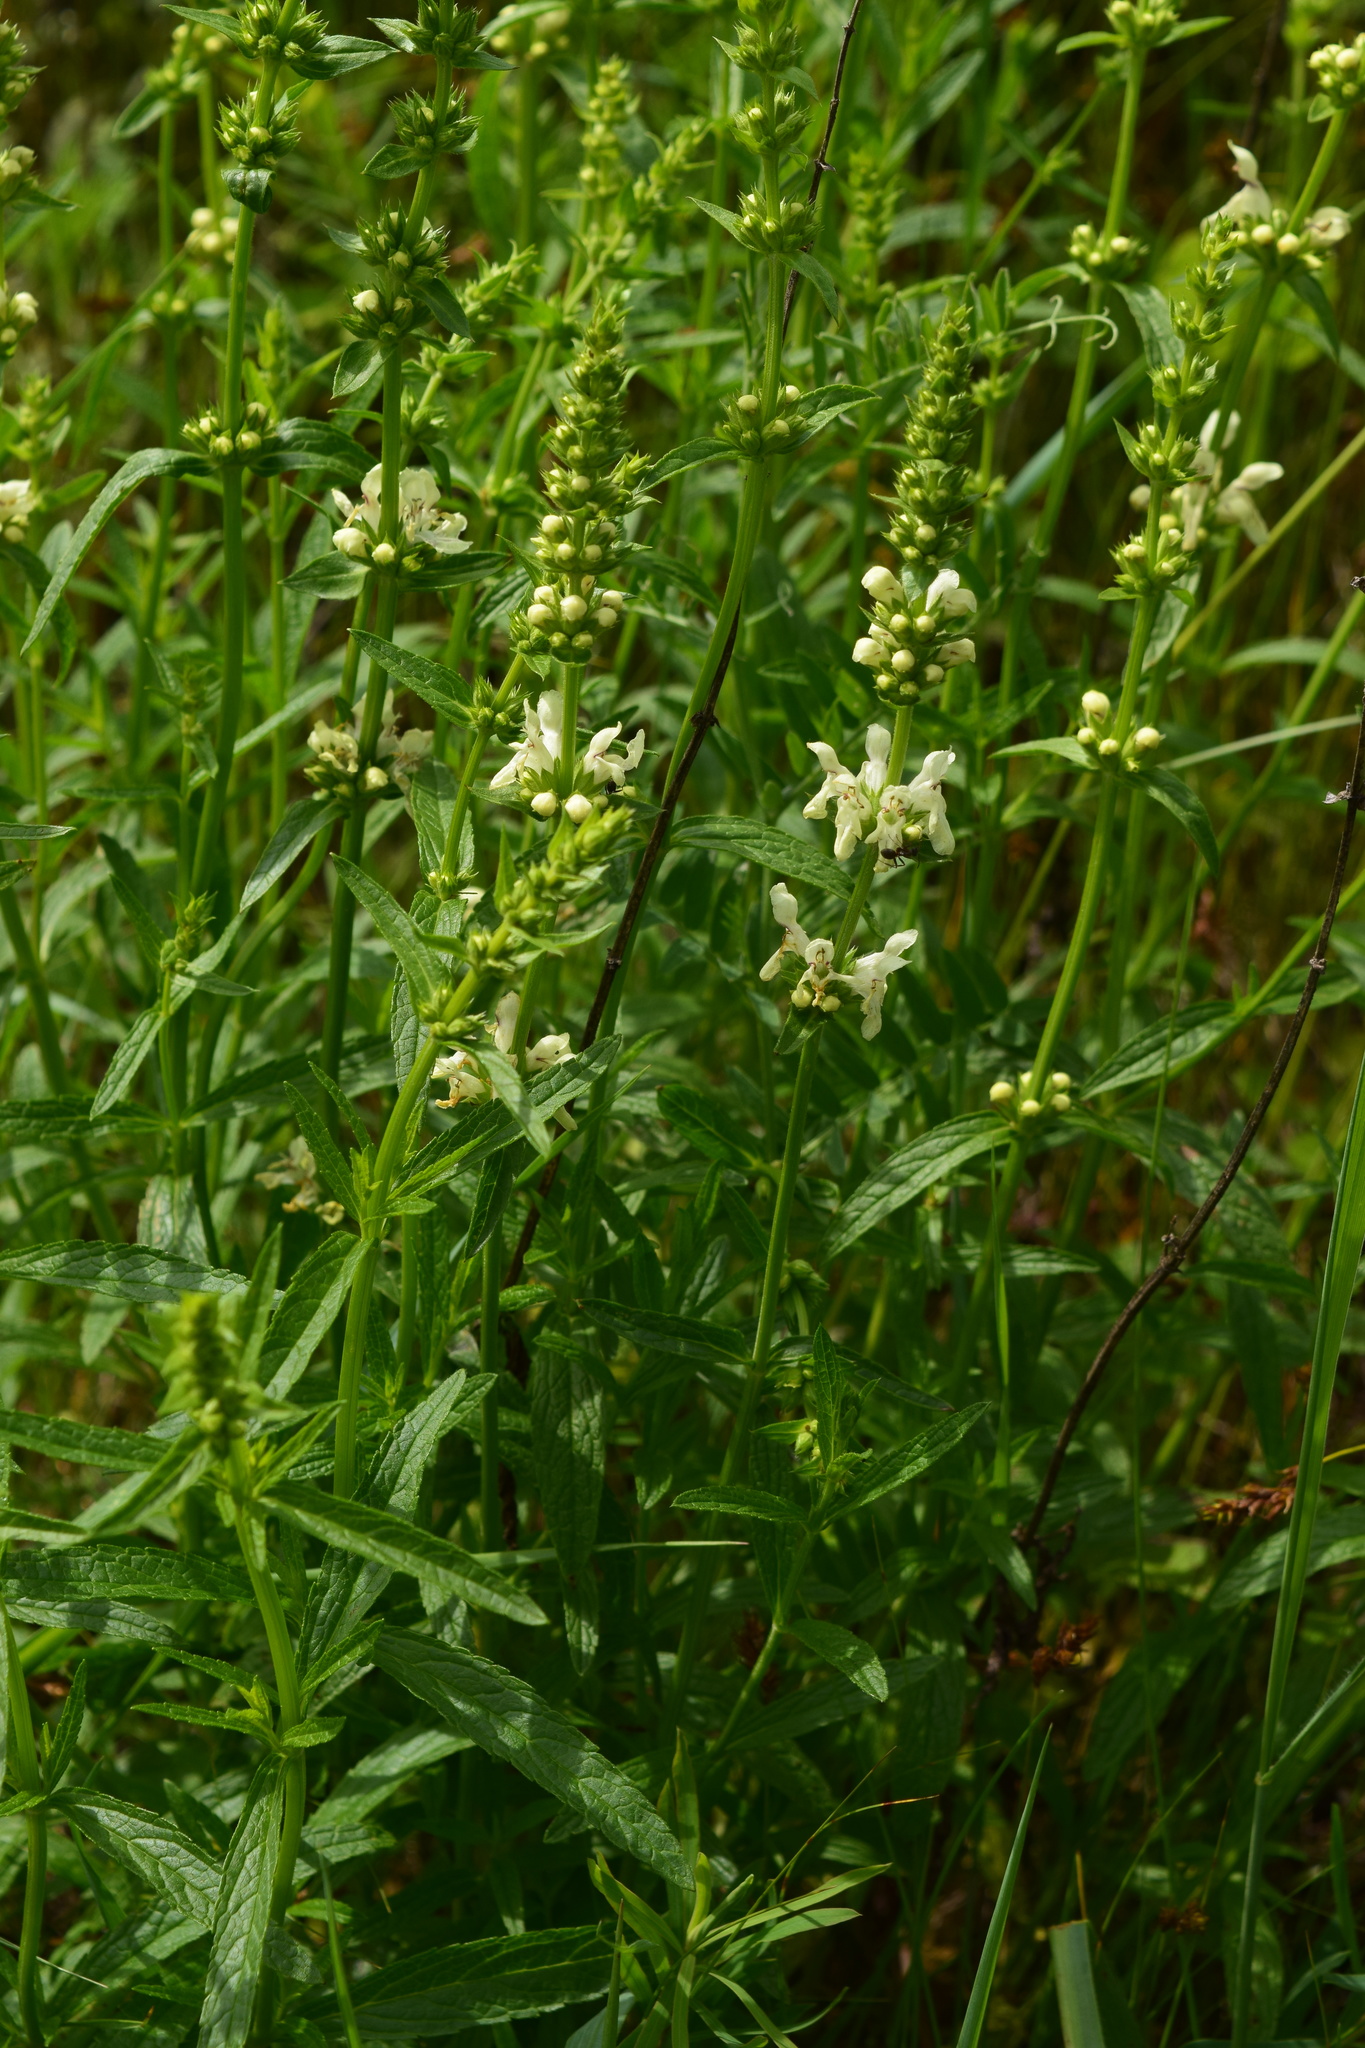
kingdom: Plantae
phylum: Tracheophyta
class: Magnoliopsida
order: Lamiales
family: Lamiaceae
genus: Stachys
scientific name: Stachys recta
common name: Perennial yellow-woundwort
